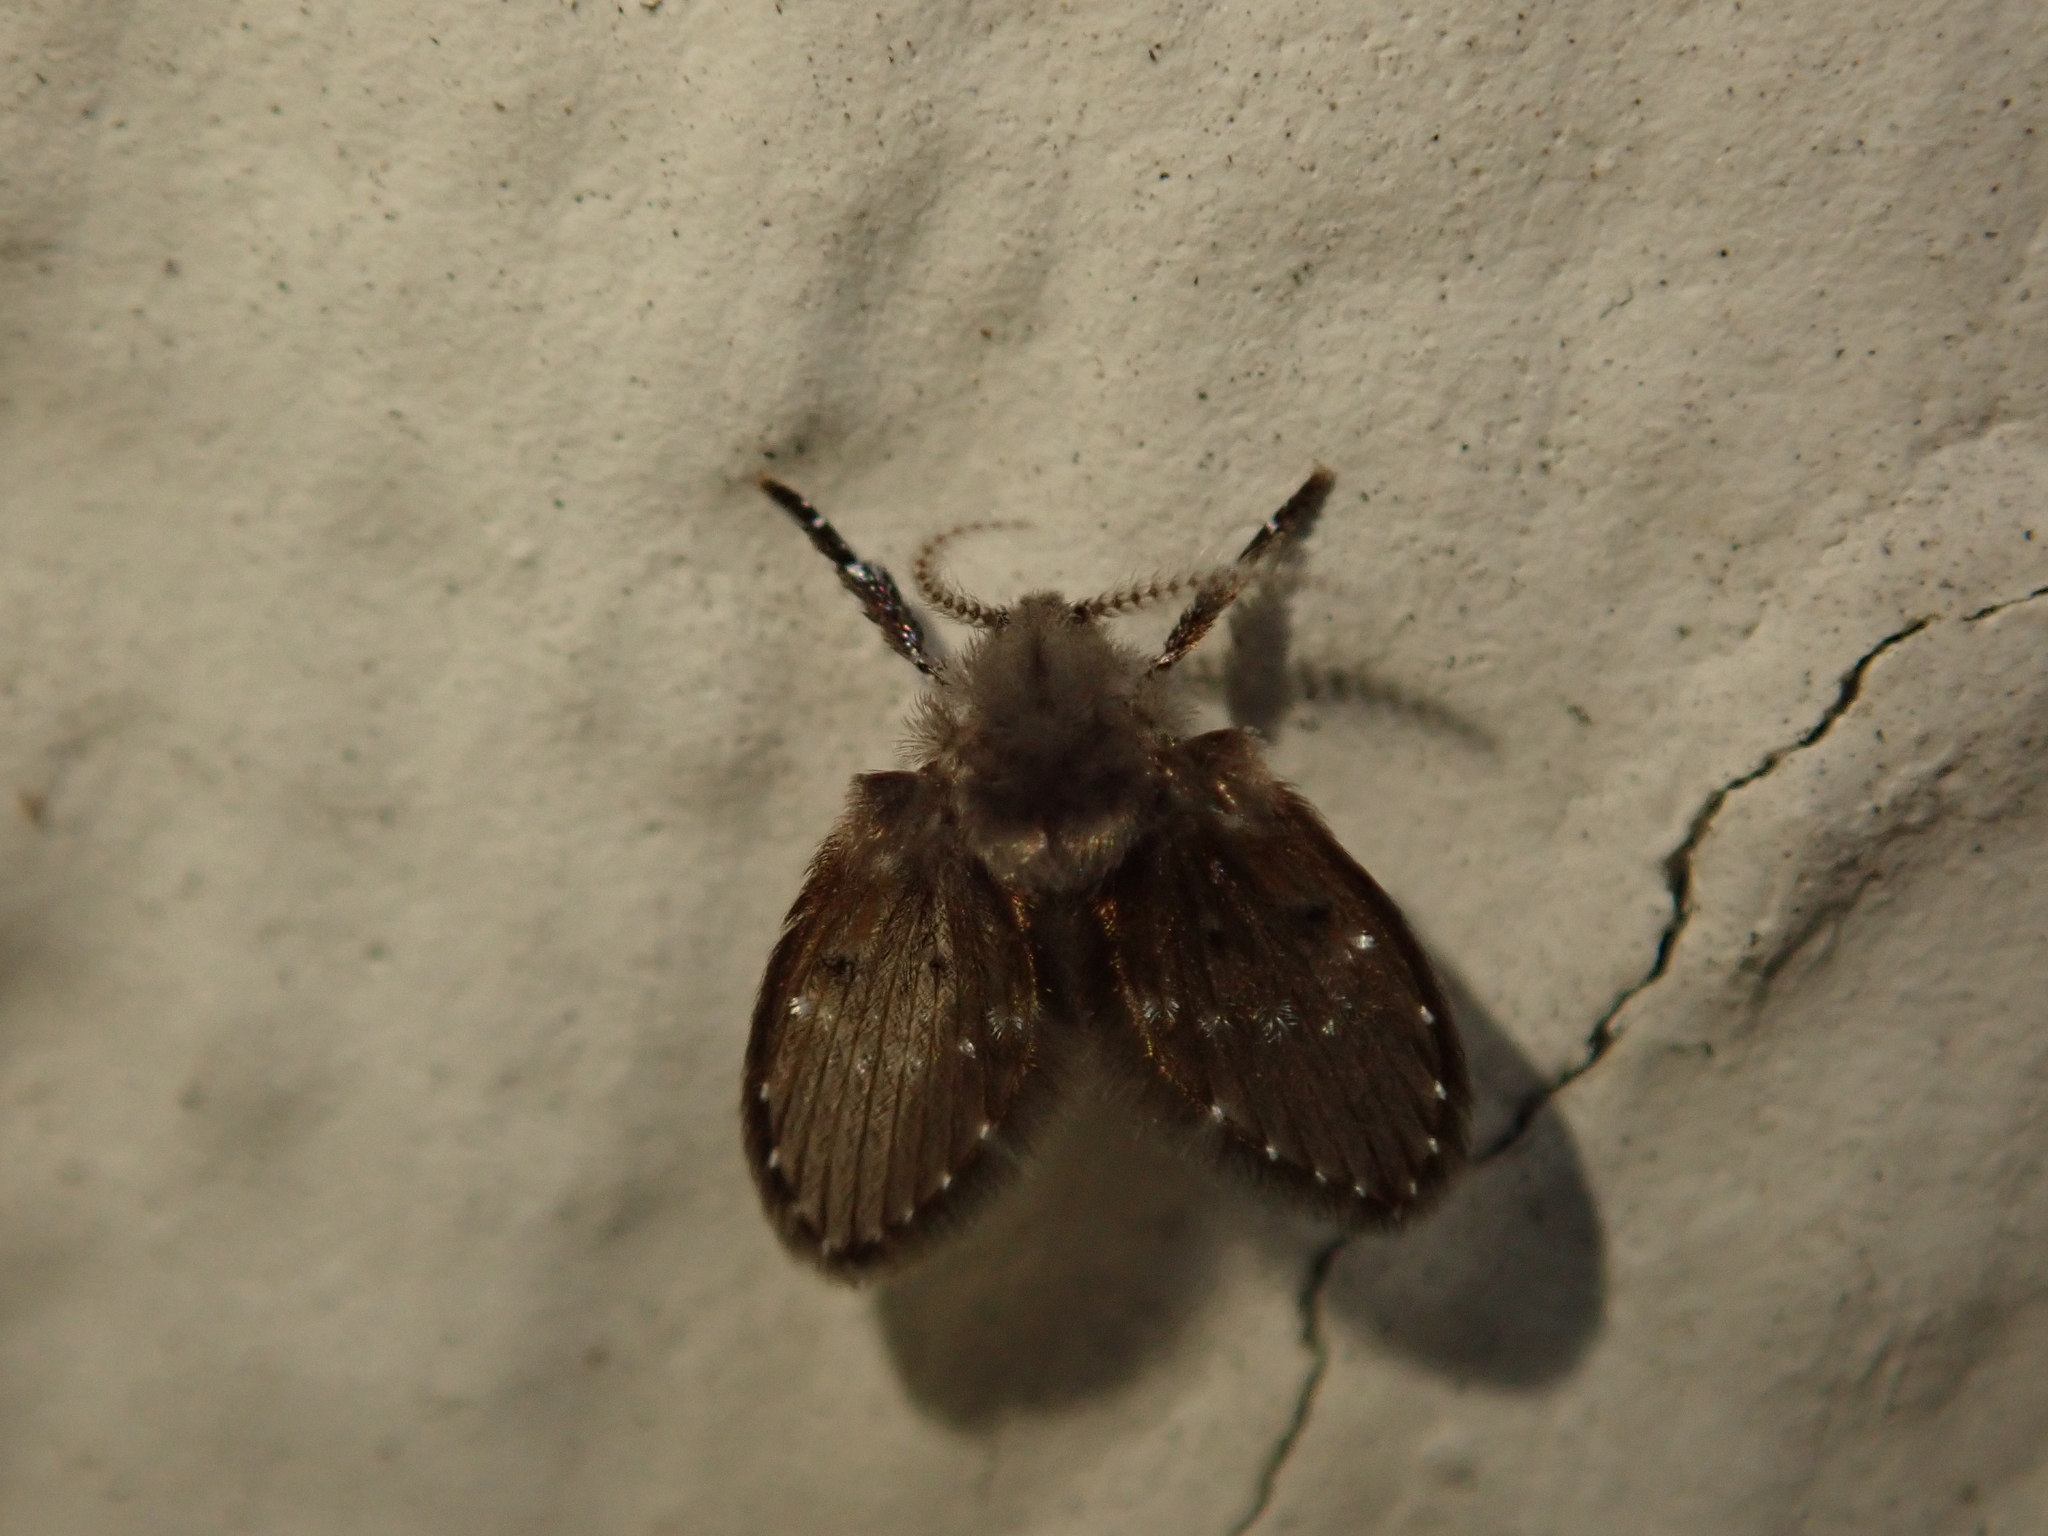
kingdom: Animalia
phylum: Arthropoda
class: Insecta
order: Diptera
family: Psychodidae
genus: Clogmia
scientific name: Clogmia albipunctatus
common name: White-spotted moth fly
